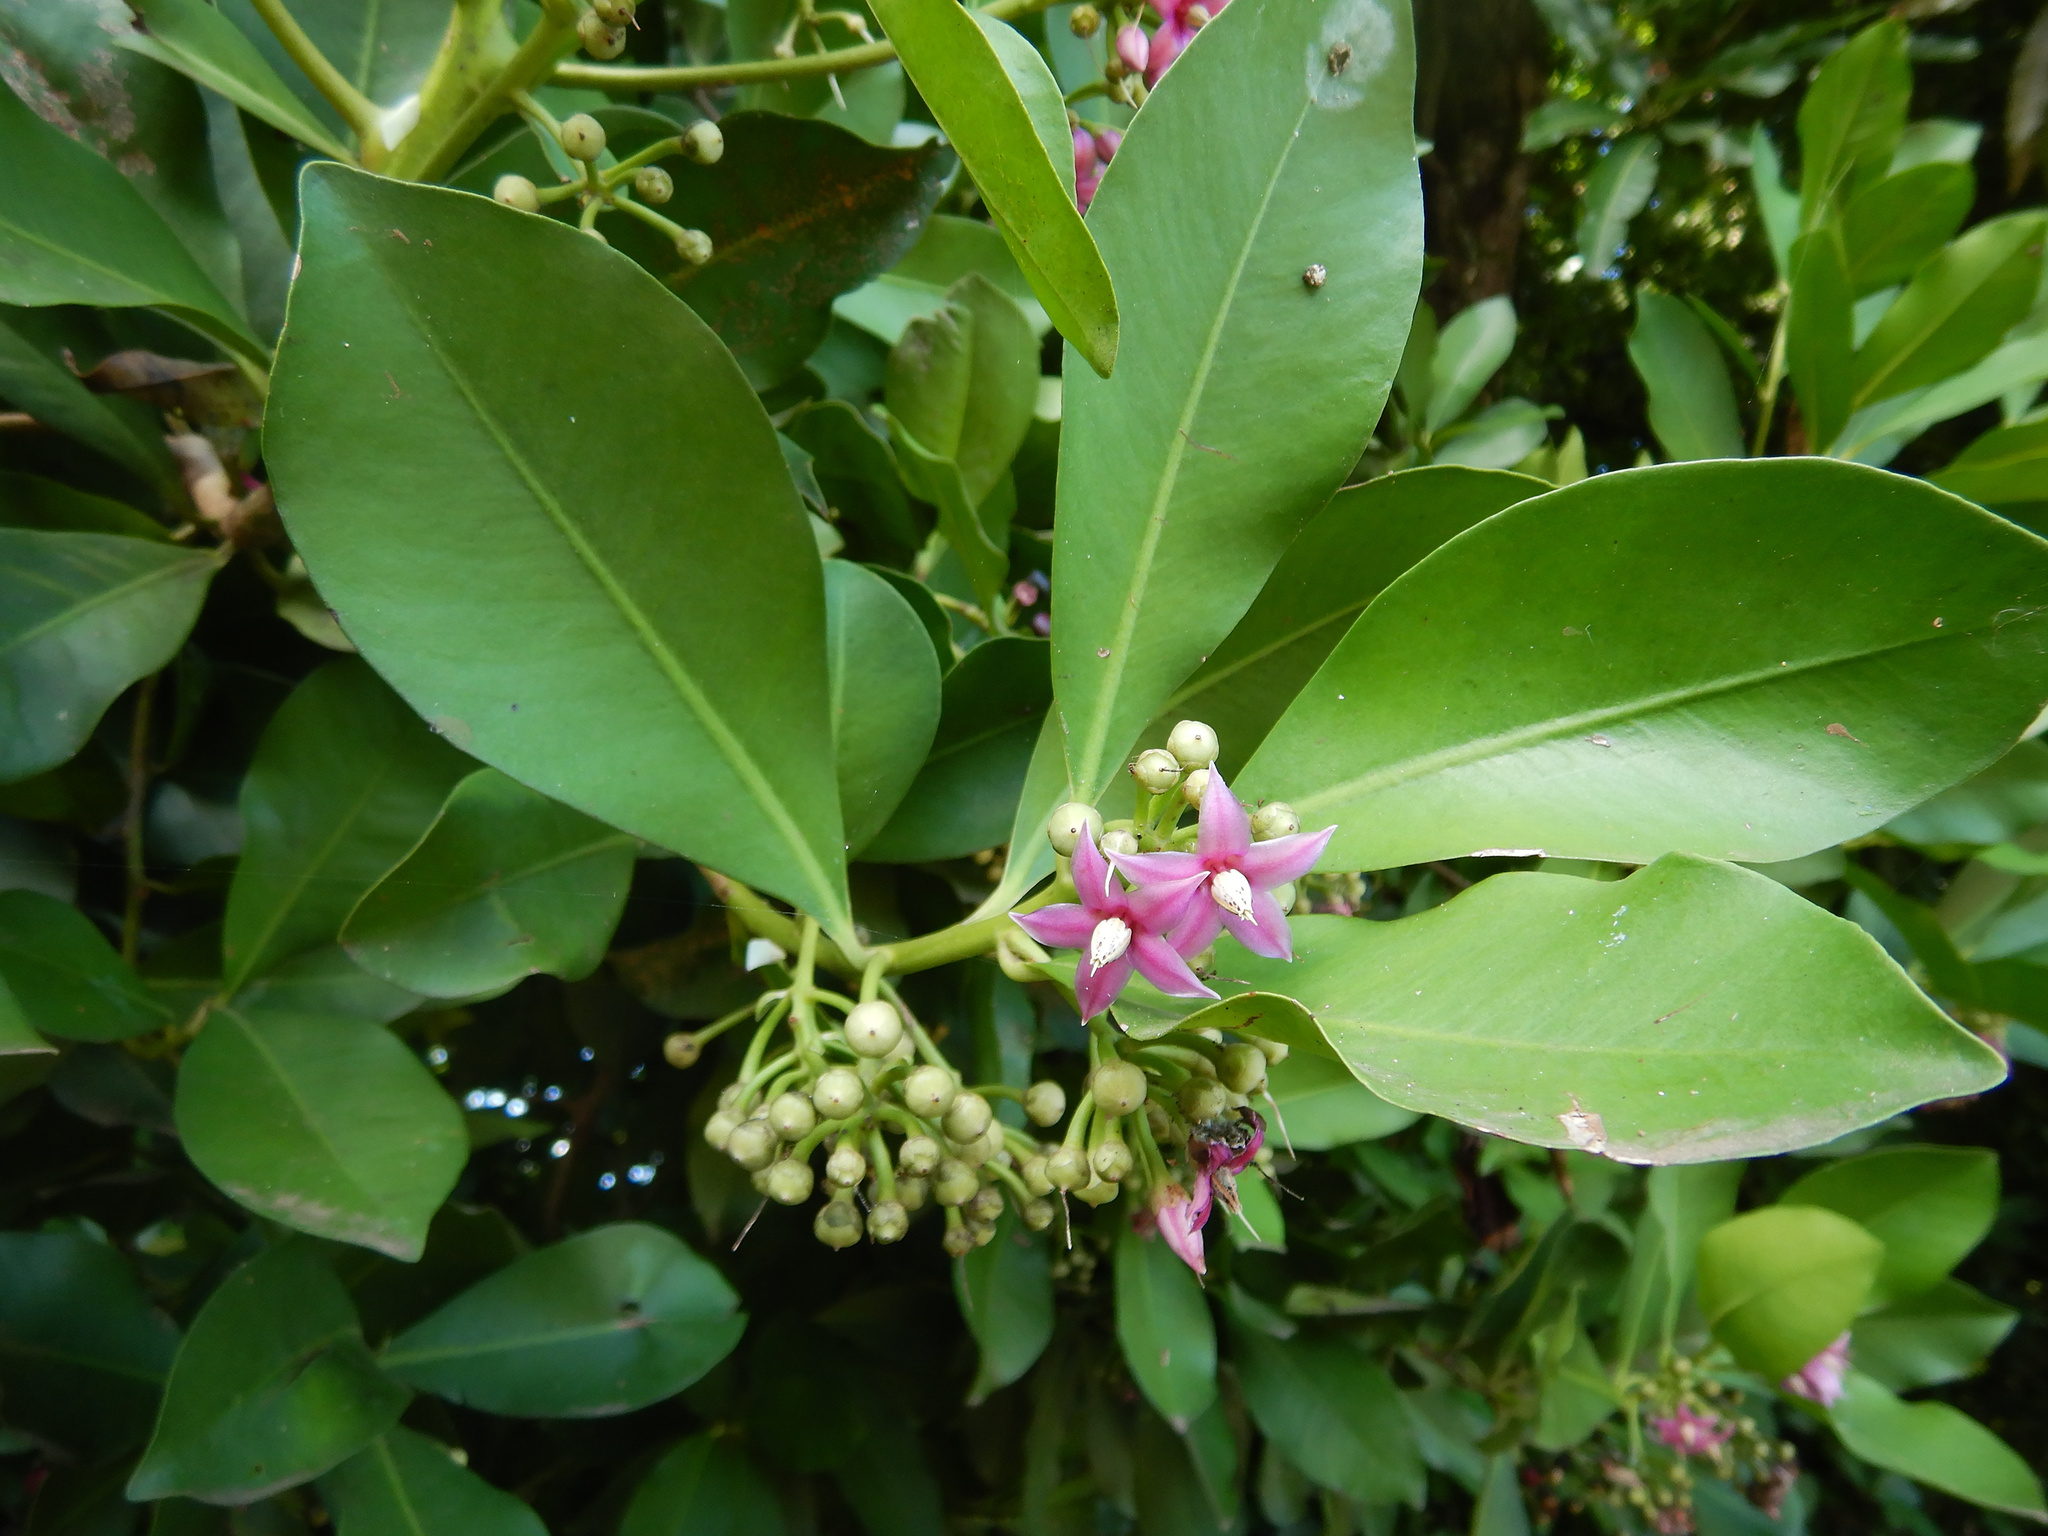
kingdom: Plantae
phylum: Tracheophyta
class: Magnoliopsida
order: Ericales
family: Primulaceae
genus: Ardisia
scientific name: Ardisia elliptica
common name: Shoebutton
